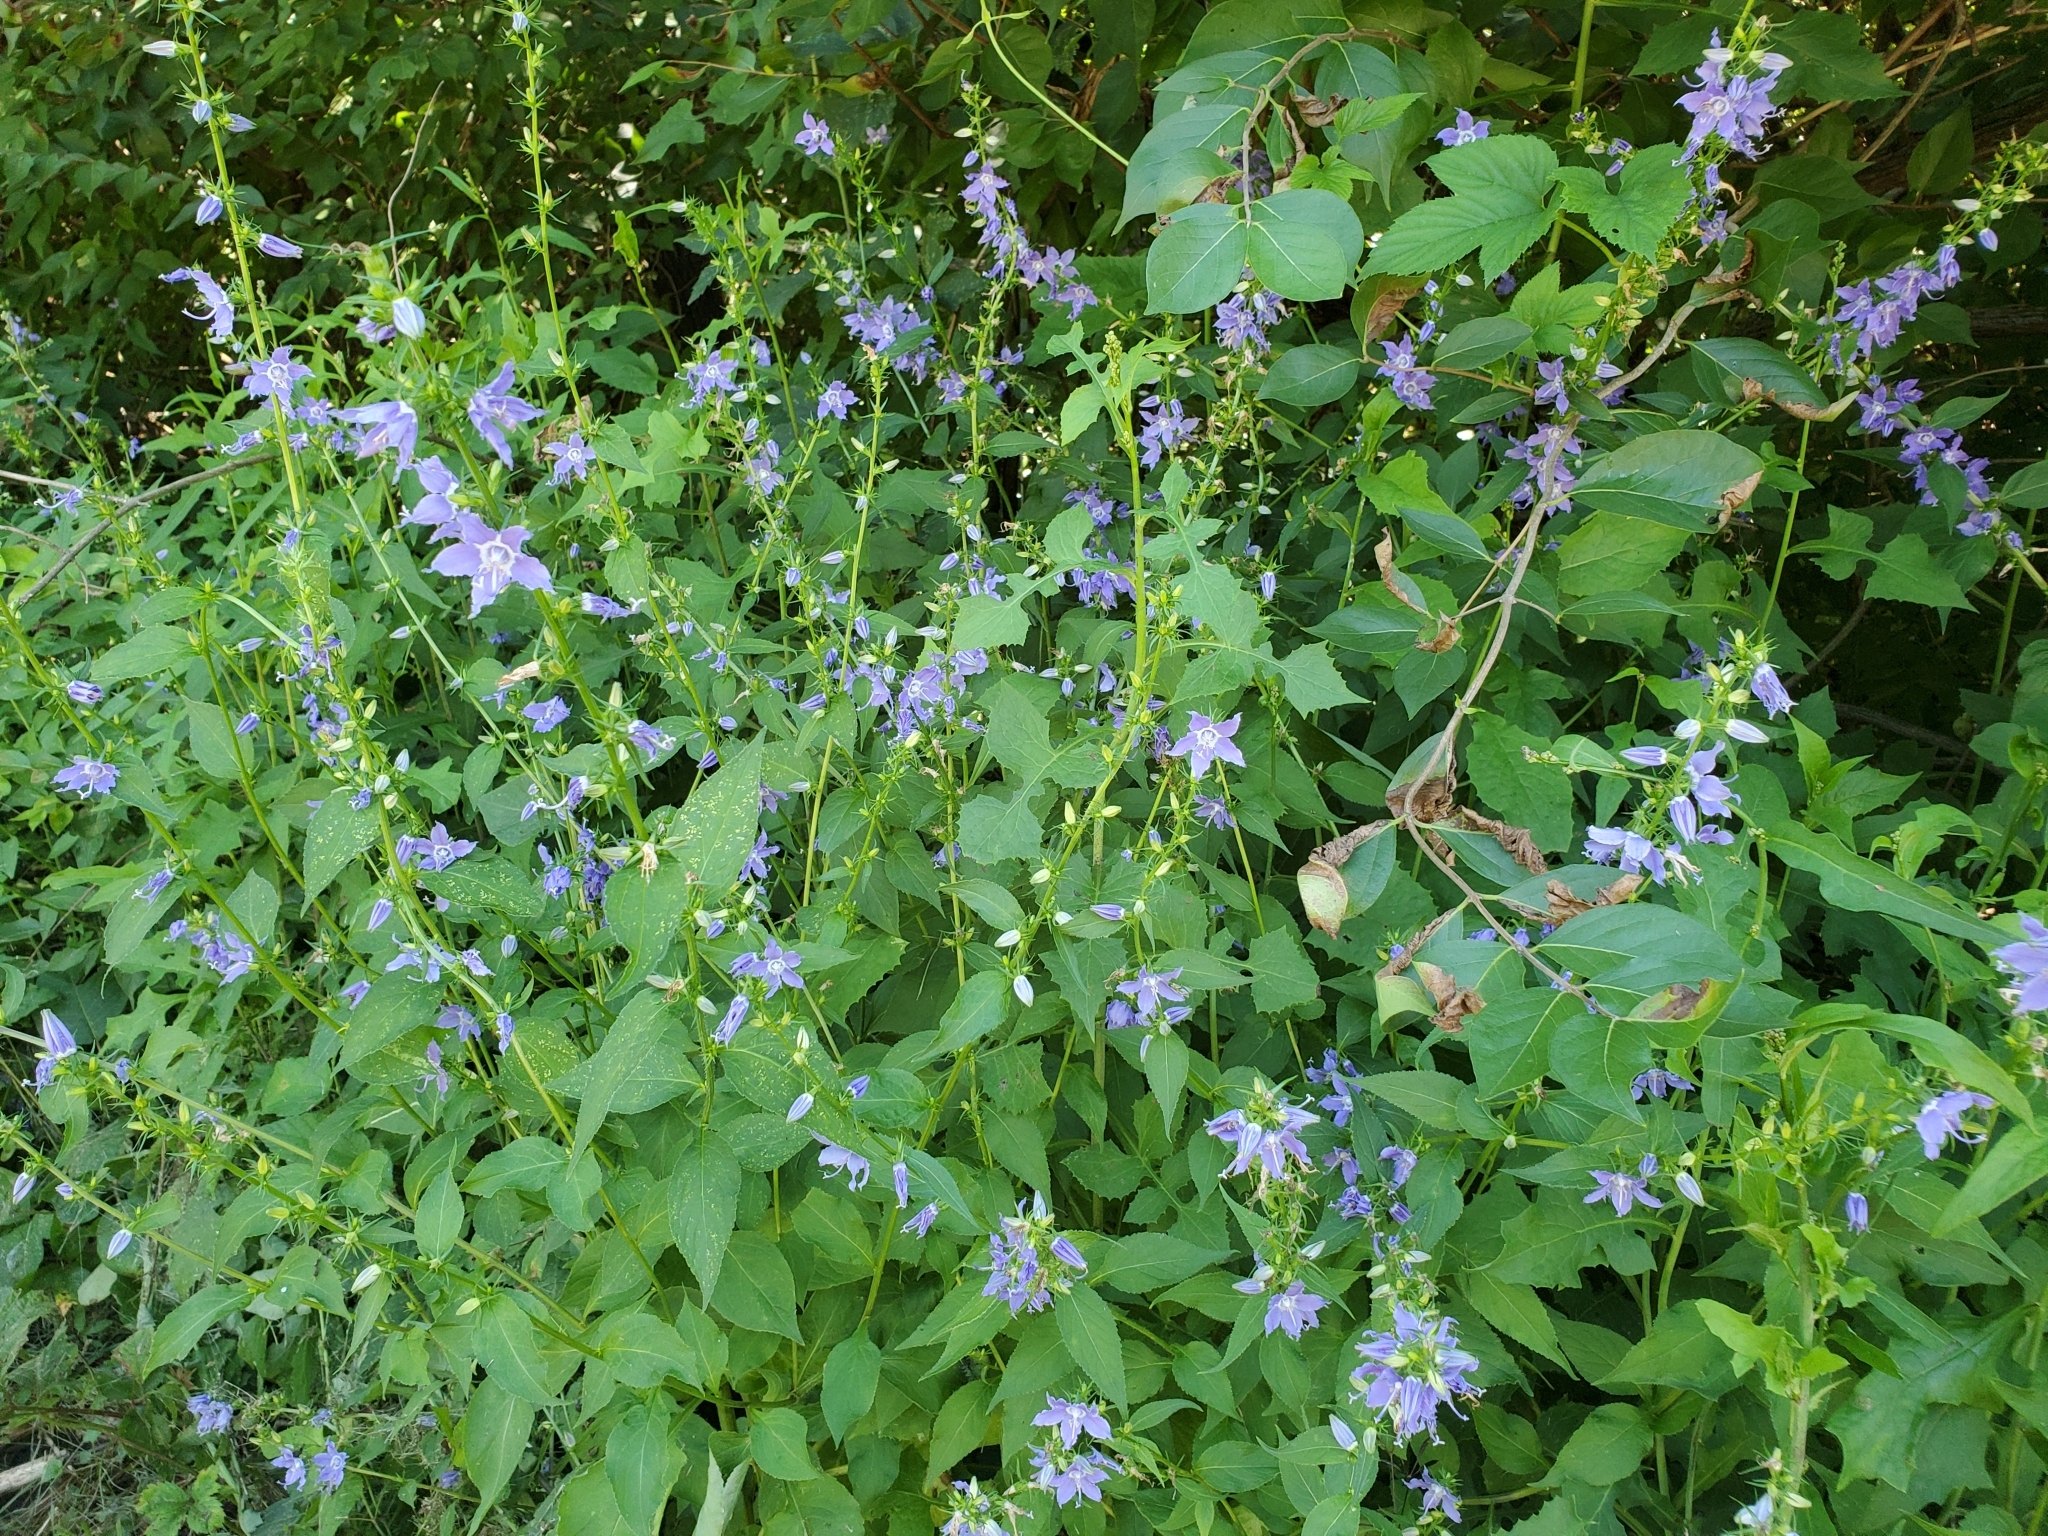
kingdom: Plantae
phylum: Tracheophyta
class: Magnoliopsida
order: Asterales
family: Campanulaceae
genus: Campanulastrum
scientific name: Campanulastrum americanum
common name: American bellflower
